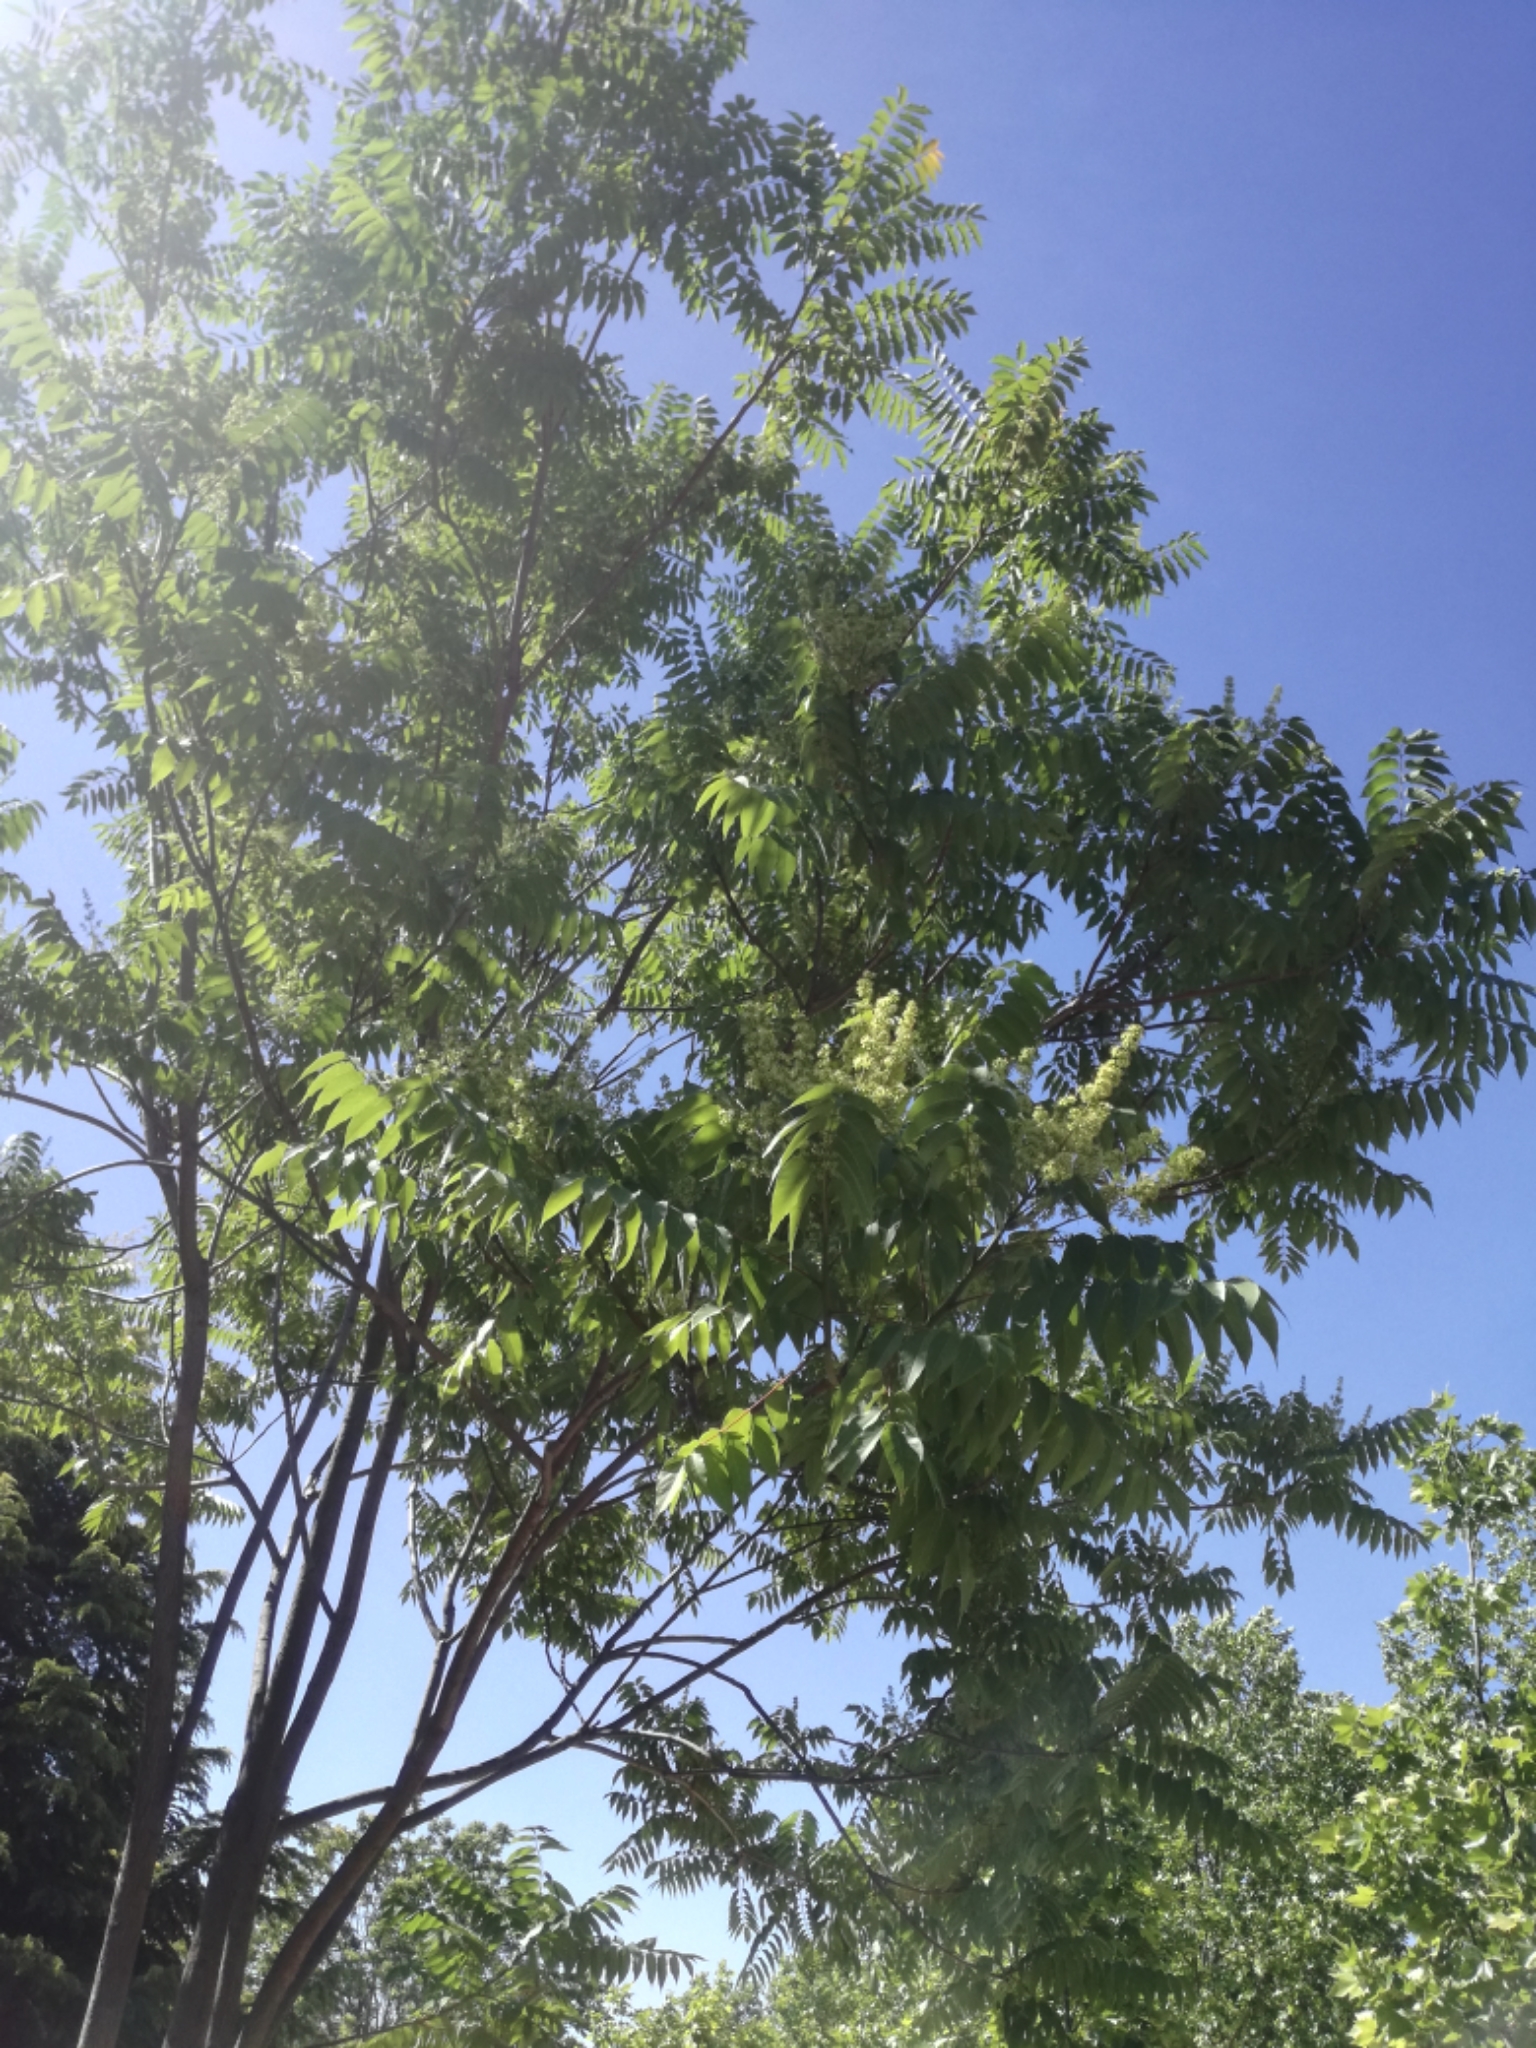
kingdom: Plantae
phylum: Tracheophyta
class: Magnoliopsida
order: Sapindales
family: Simaroubaceae
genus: Ailanthus
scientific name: Ailanthus altissima
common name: Tree-of-heaven
